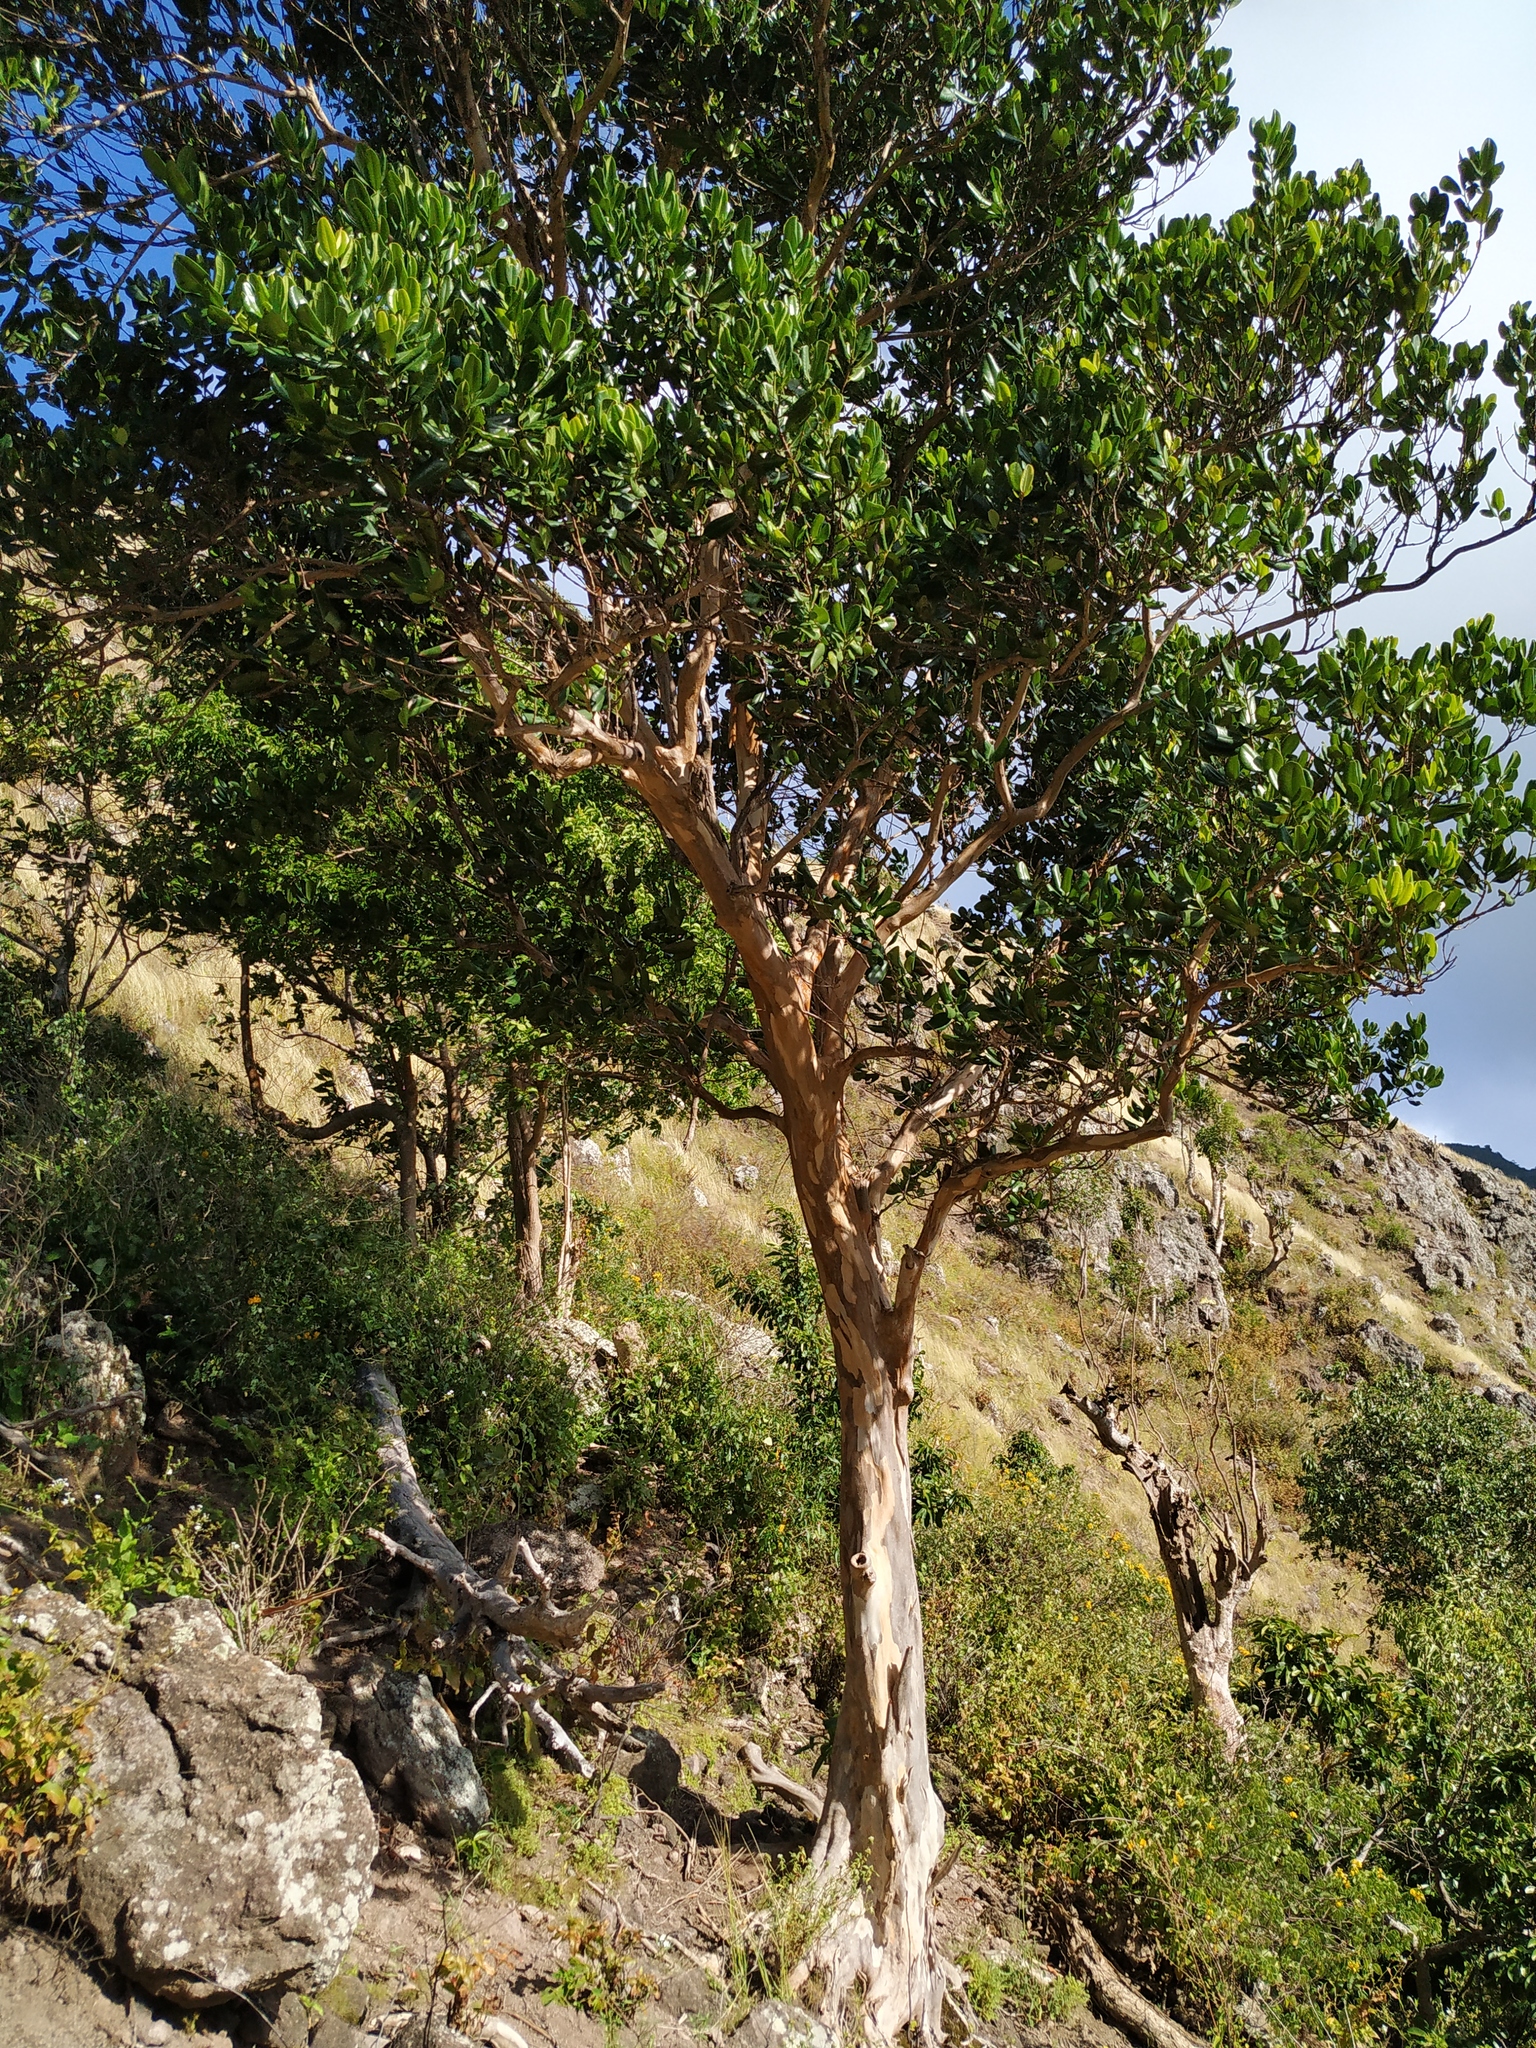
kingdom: Plantae
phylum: Tracheophyta
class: Magnoliopsida
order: Myrtales
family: Myrtaceae
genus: Pimenta
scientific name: Pimenta racemosa
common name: Bay rum tree
